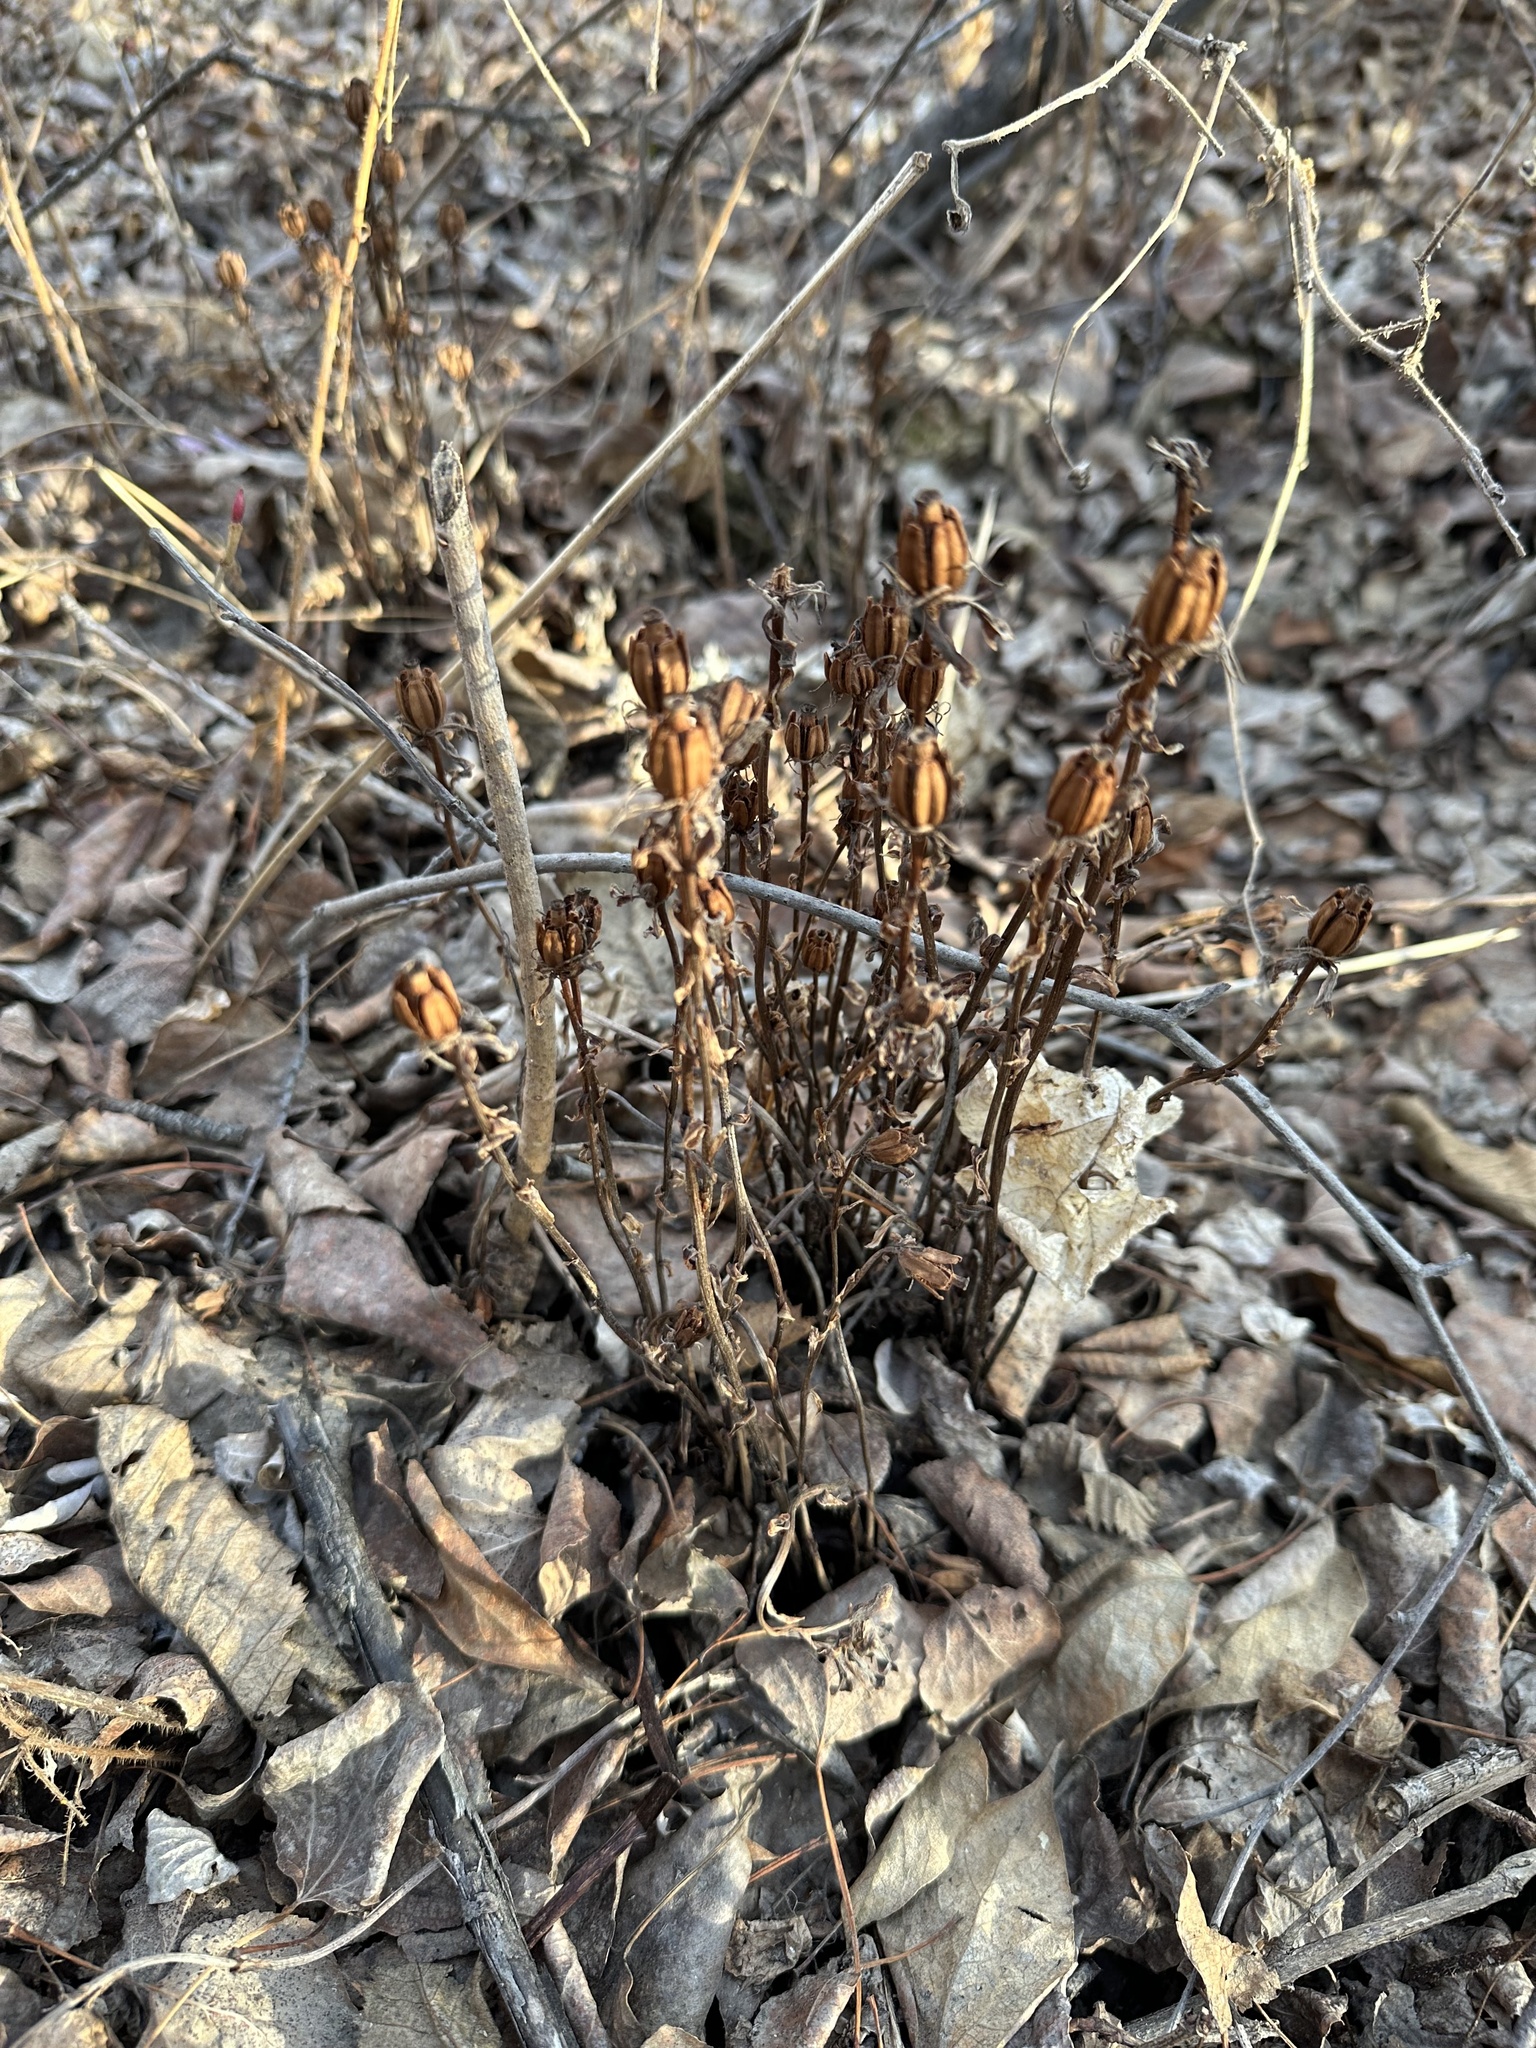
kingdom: Plantae
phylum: Tracheophyta
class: Magnoliopsida
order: Ericales
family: Ericaceae
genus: Monotropa
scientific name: Monotropa uniflora
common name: Convulsion root
